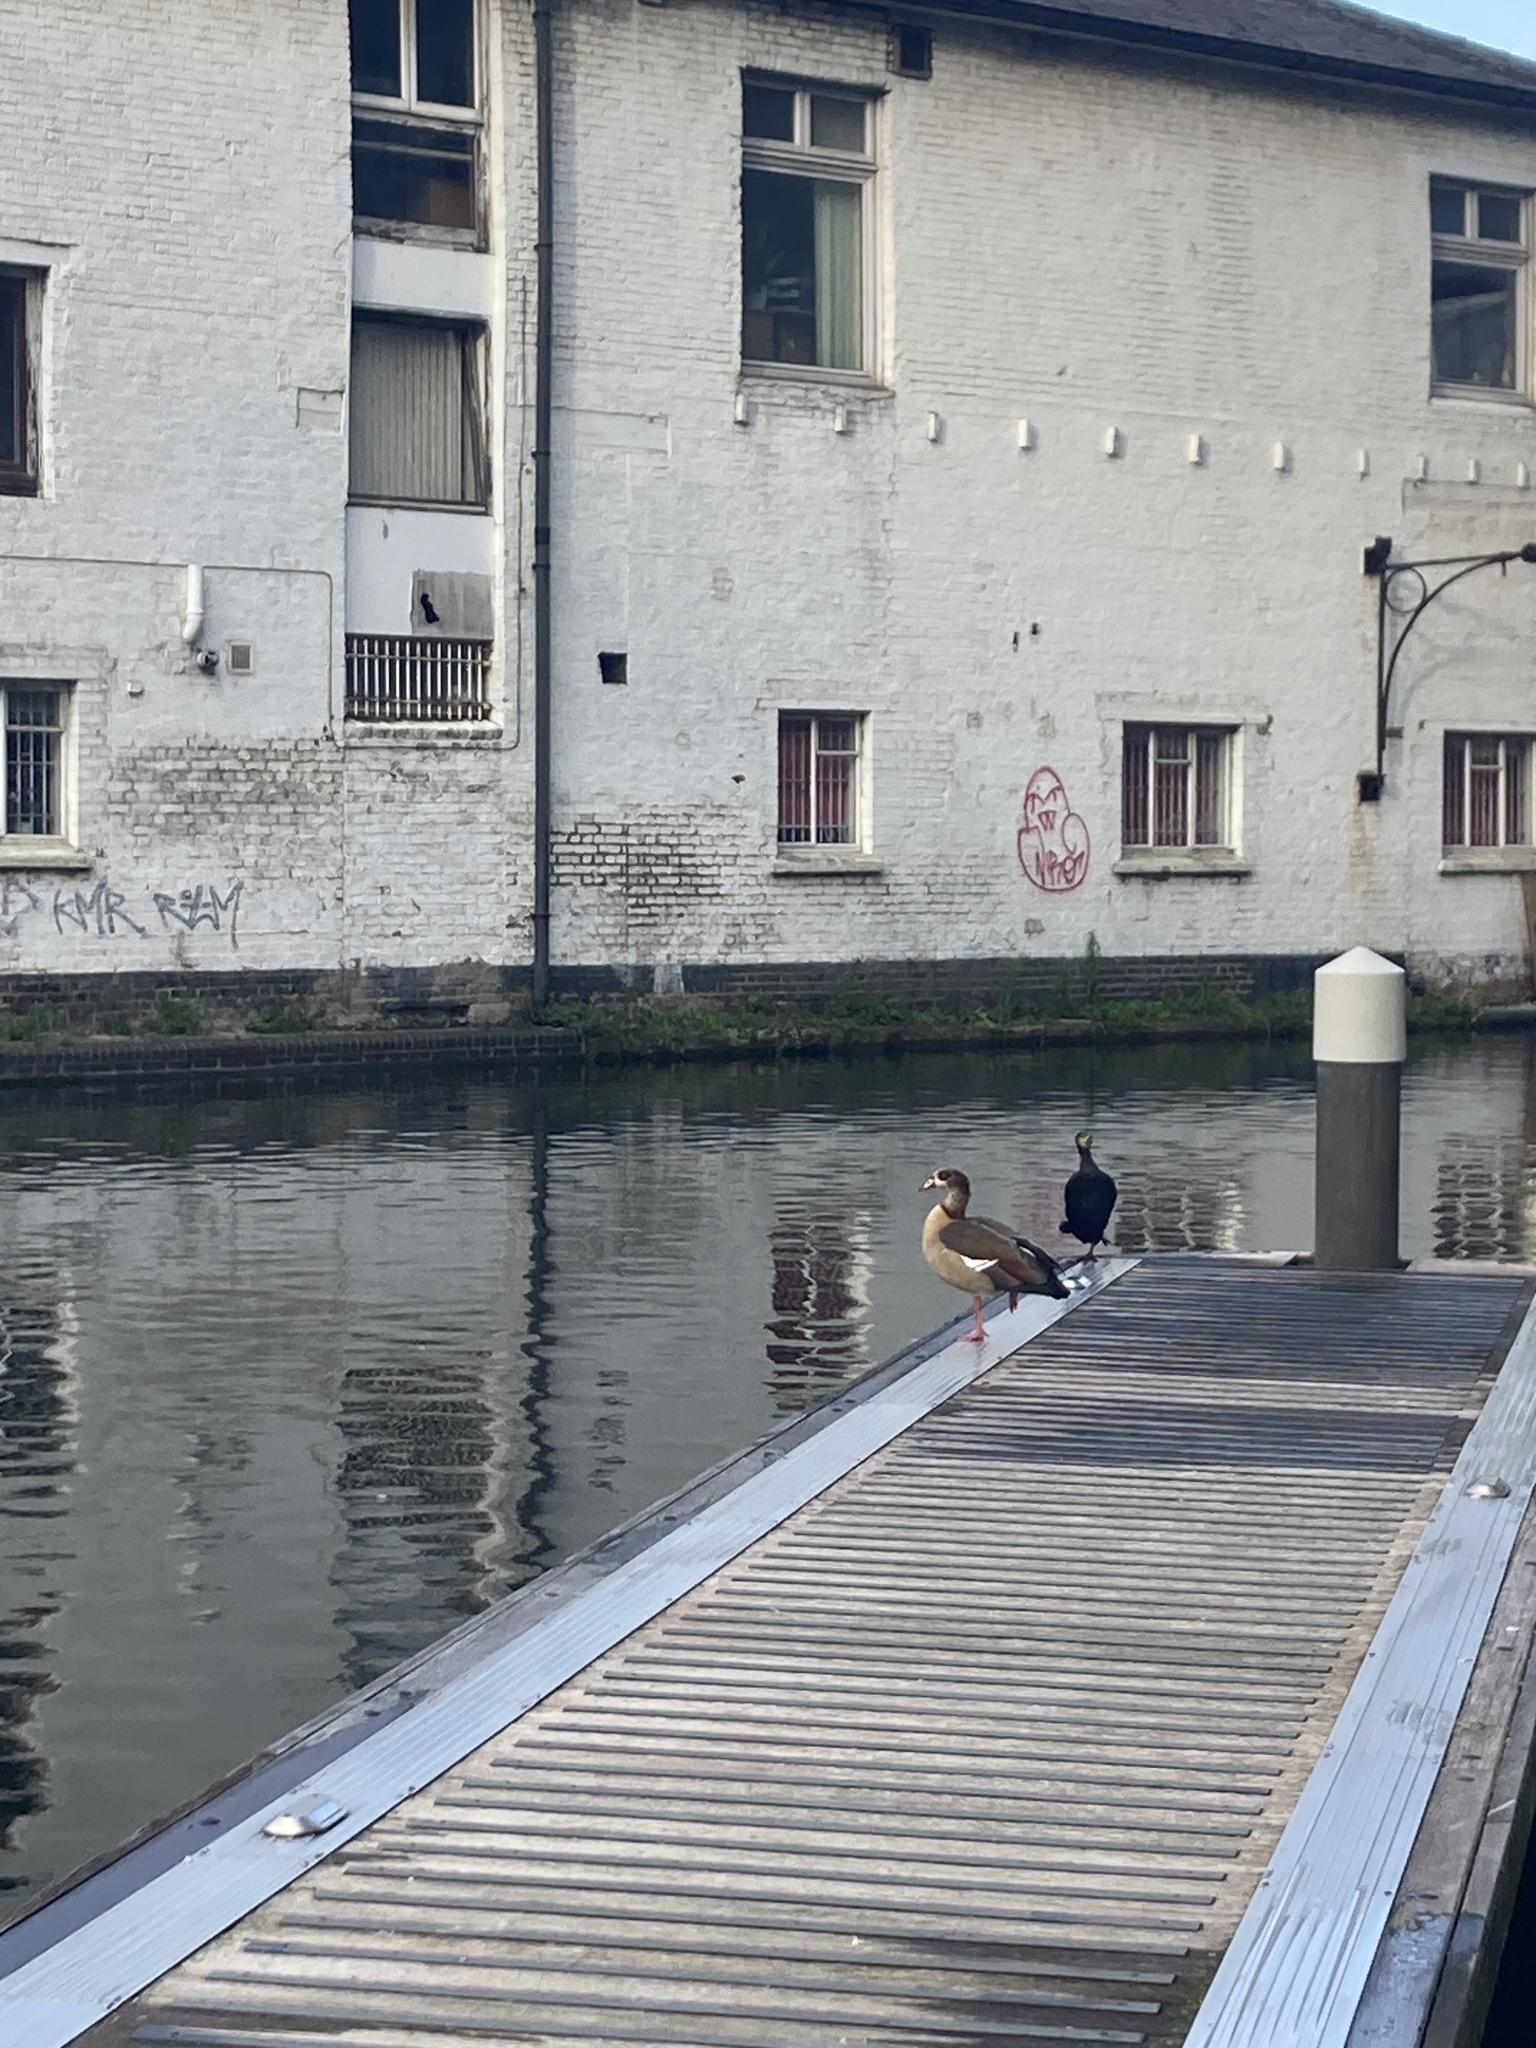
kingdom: Animalia
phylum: Chordata
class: Aves
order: Anseriformes
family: Anatidae
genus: Alopochen
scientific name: Alopochen aegyptiaca
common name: Egyptian goose
